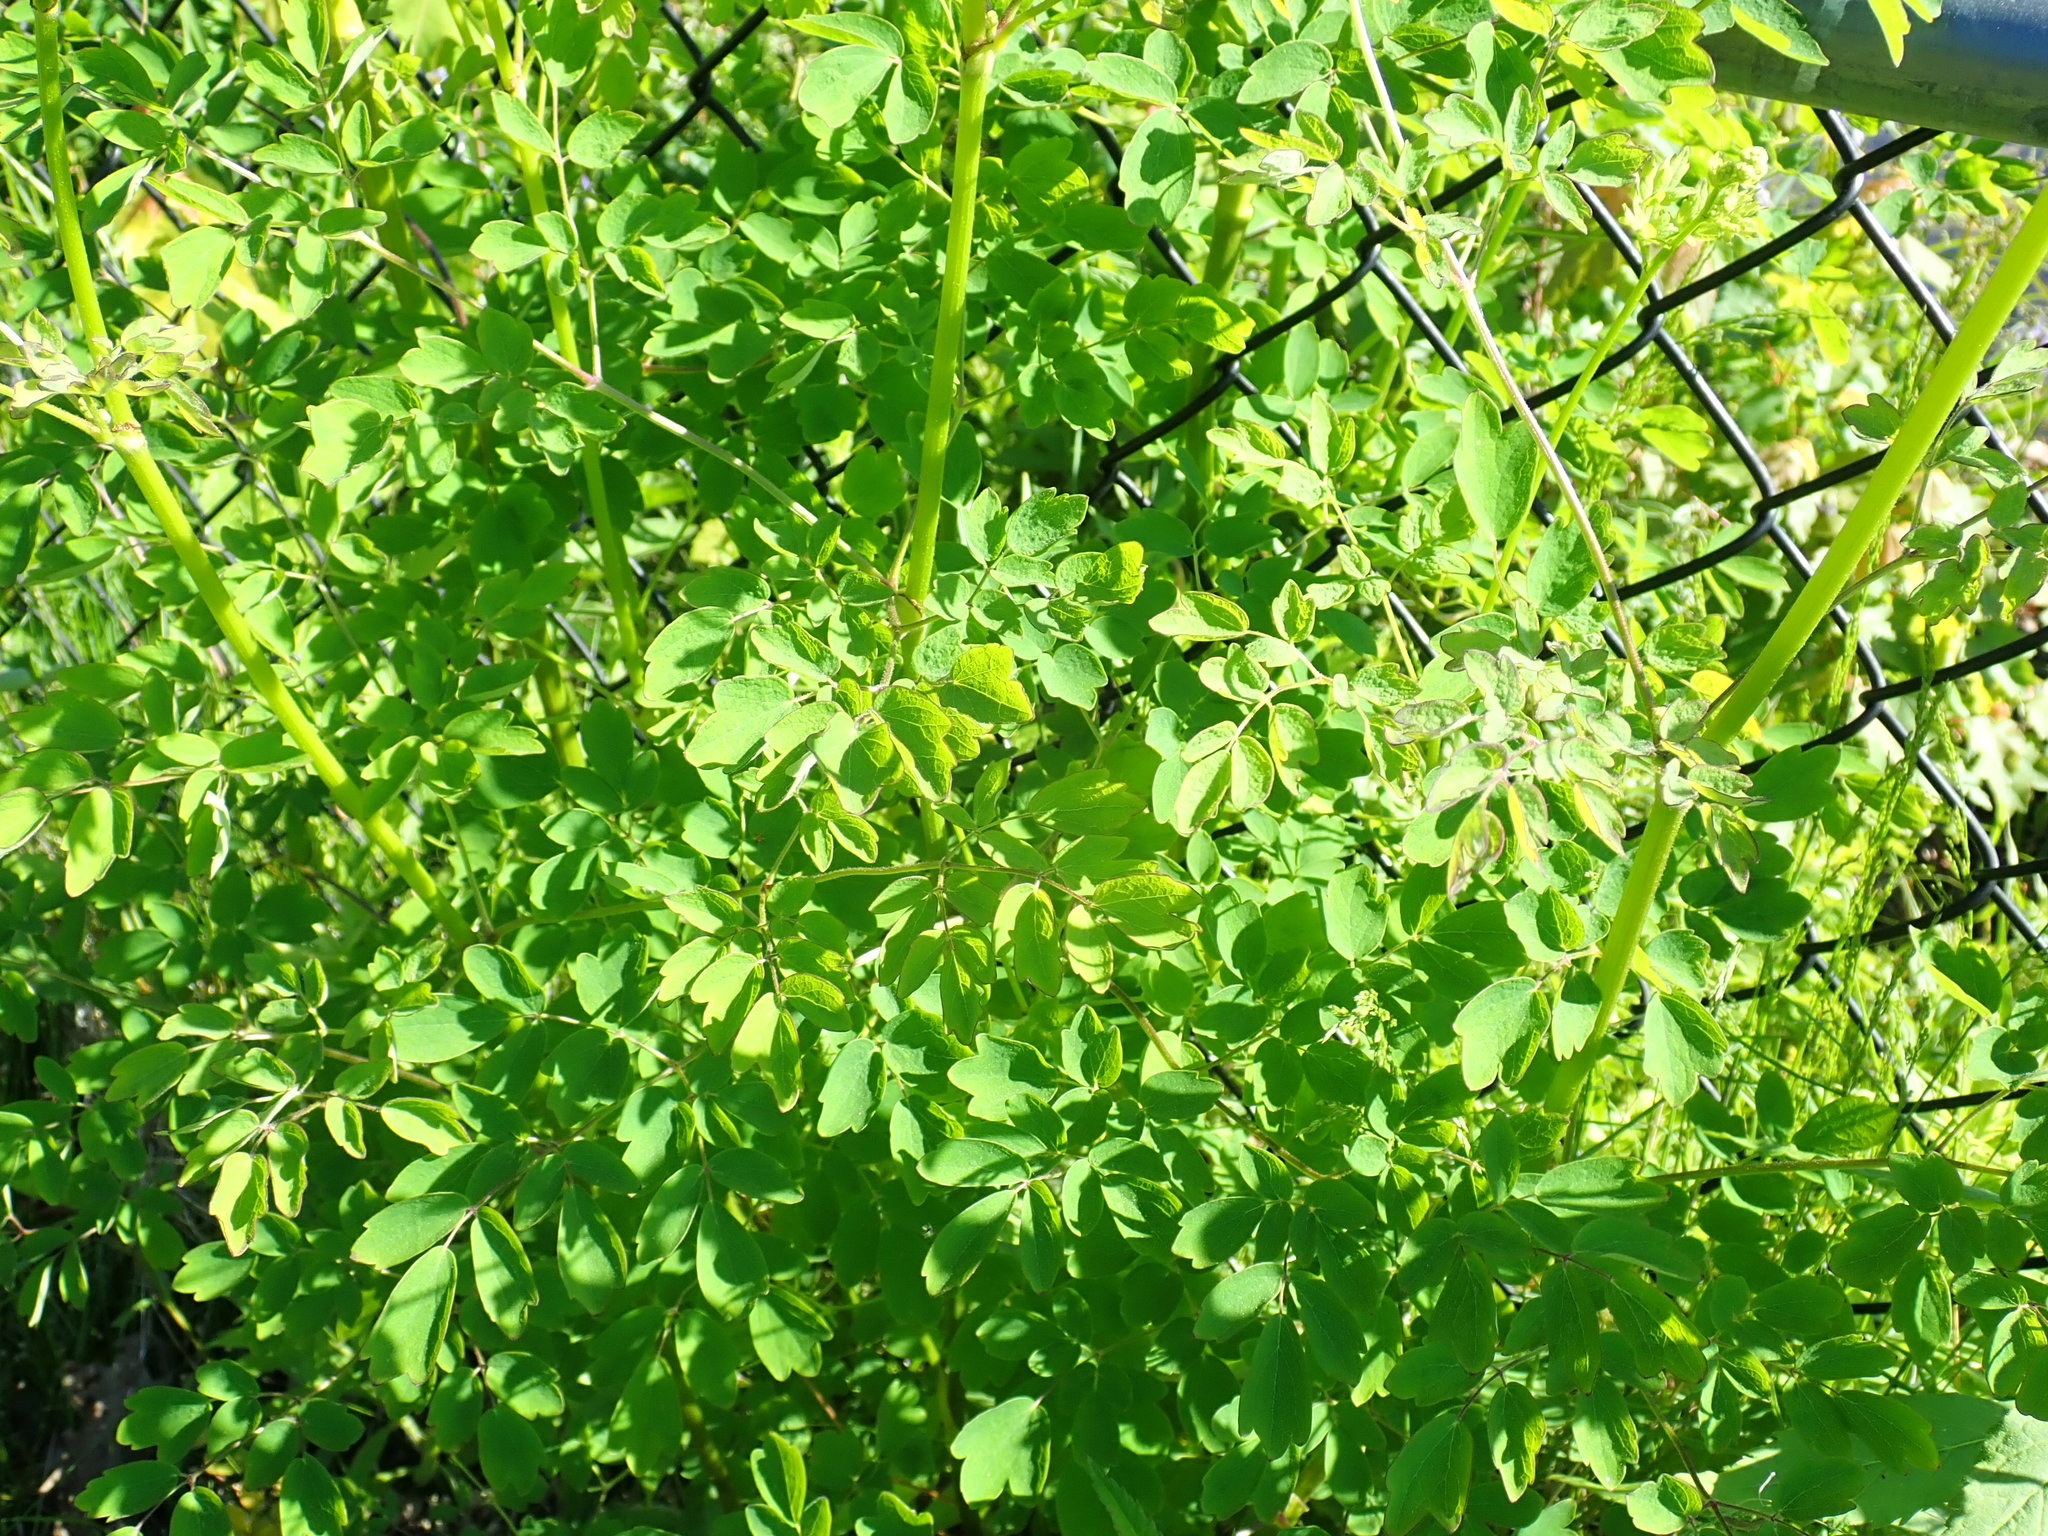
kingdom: Plantae
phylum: Tracheophyta
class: Magnoliopsida
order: Ranunculales
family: Ranunculaceae
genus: Thalictrum
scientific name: Thalictrum pubescens
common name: King-of-the-meadow
